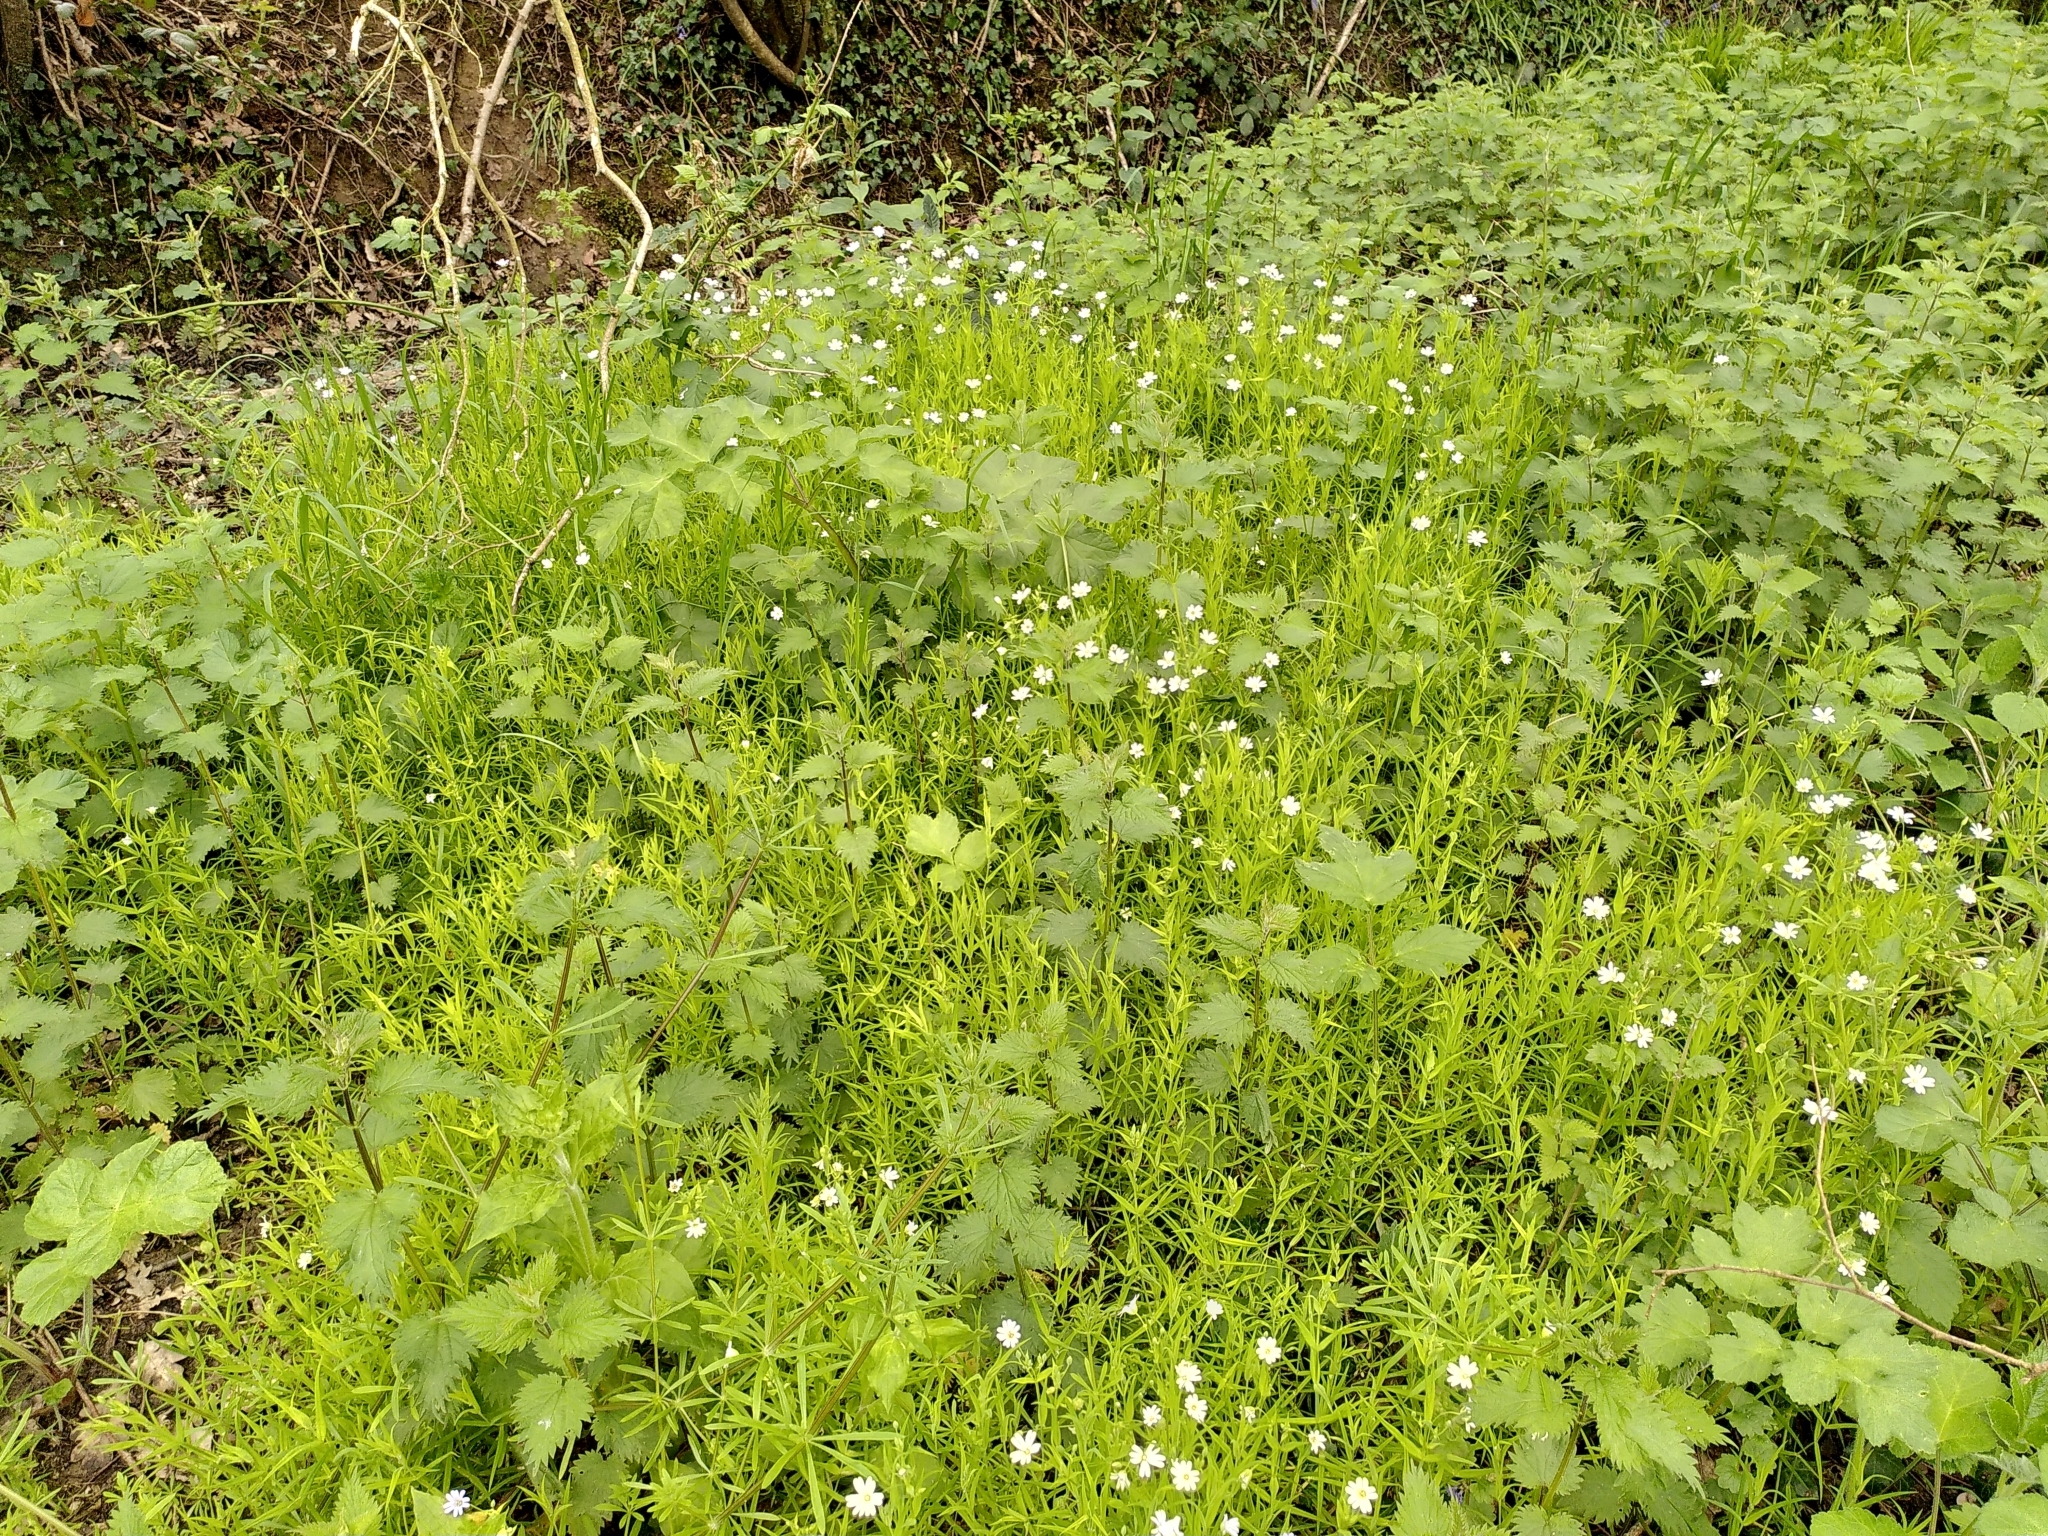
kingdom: Plantae
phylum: Tracheophyta
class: Magnoliopsida
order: Caryophyllales
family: Caryophyllaceae
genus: Rabelera
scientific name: Rabelera holostea
